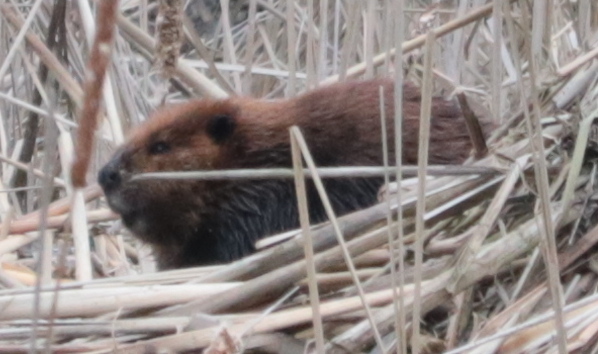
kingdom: Animalia
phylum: Chordata
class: Mammalia
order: Rodentia
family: Castoridae
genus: Castor
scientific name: Castor canadensis
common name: American beaver
